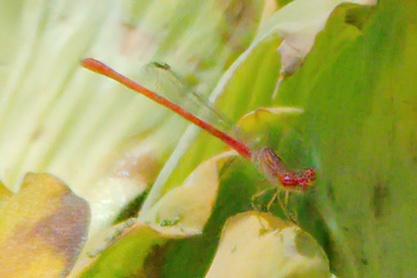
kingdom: Animalia
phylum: Arthropoda
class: Insecta
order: Odonata
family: Coenagrionidae
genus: Telebasis
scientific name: Telebasis byersi
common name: Duckweed firetail
